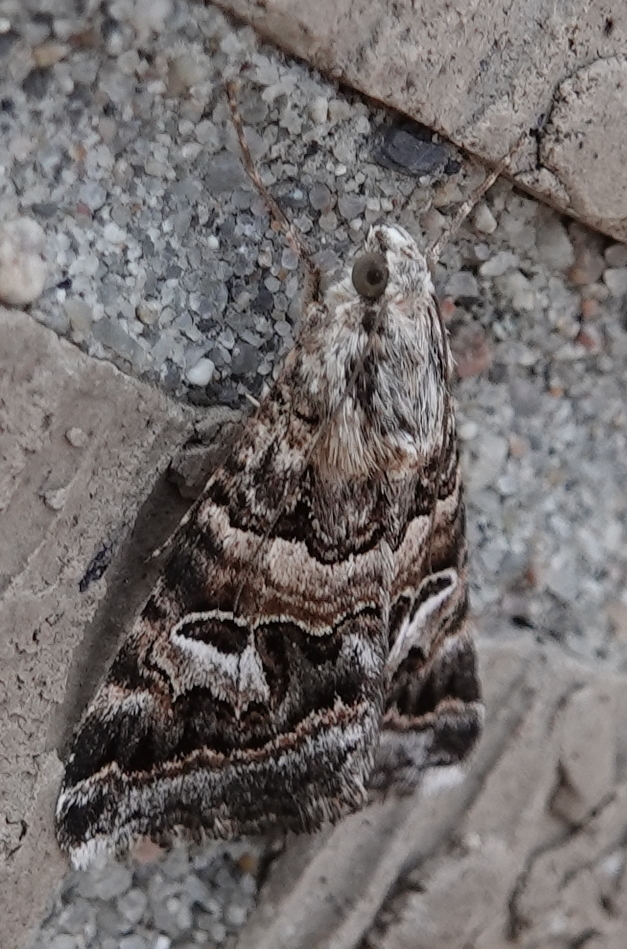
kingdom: Animalia
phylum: Arthropoda
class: Insecta
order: Lepidoptera
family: Erebidae
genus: Drasteria
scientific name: Drasteria mirifica
